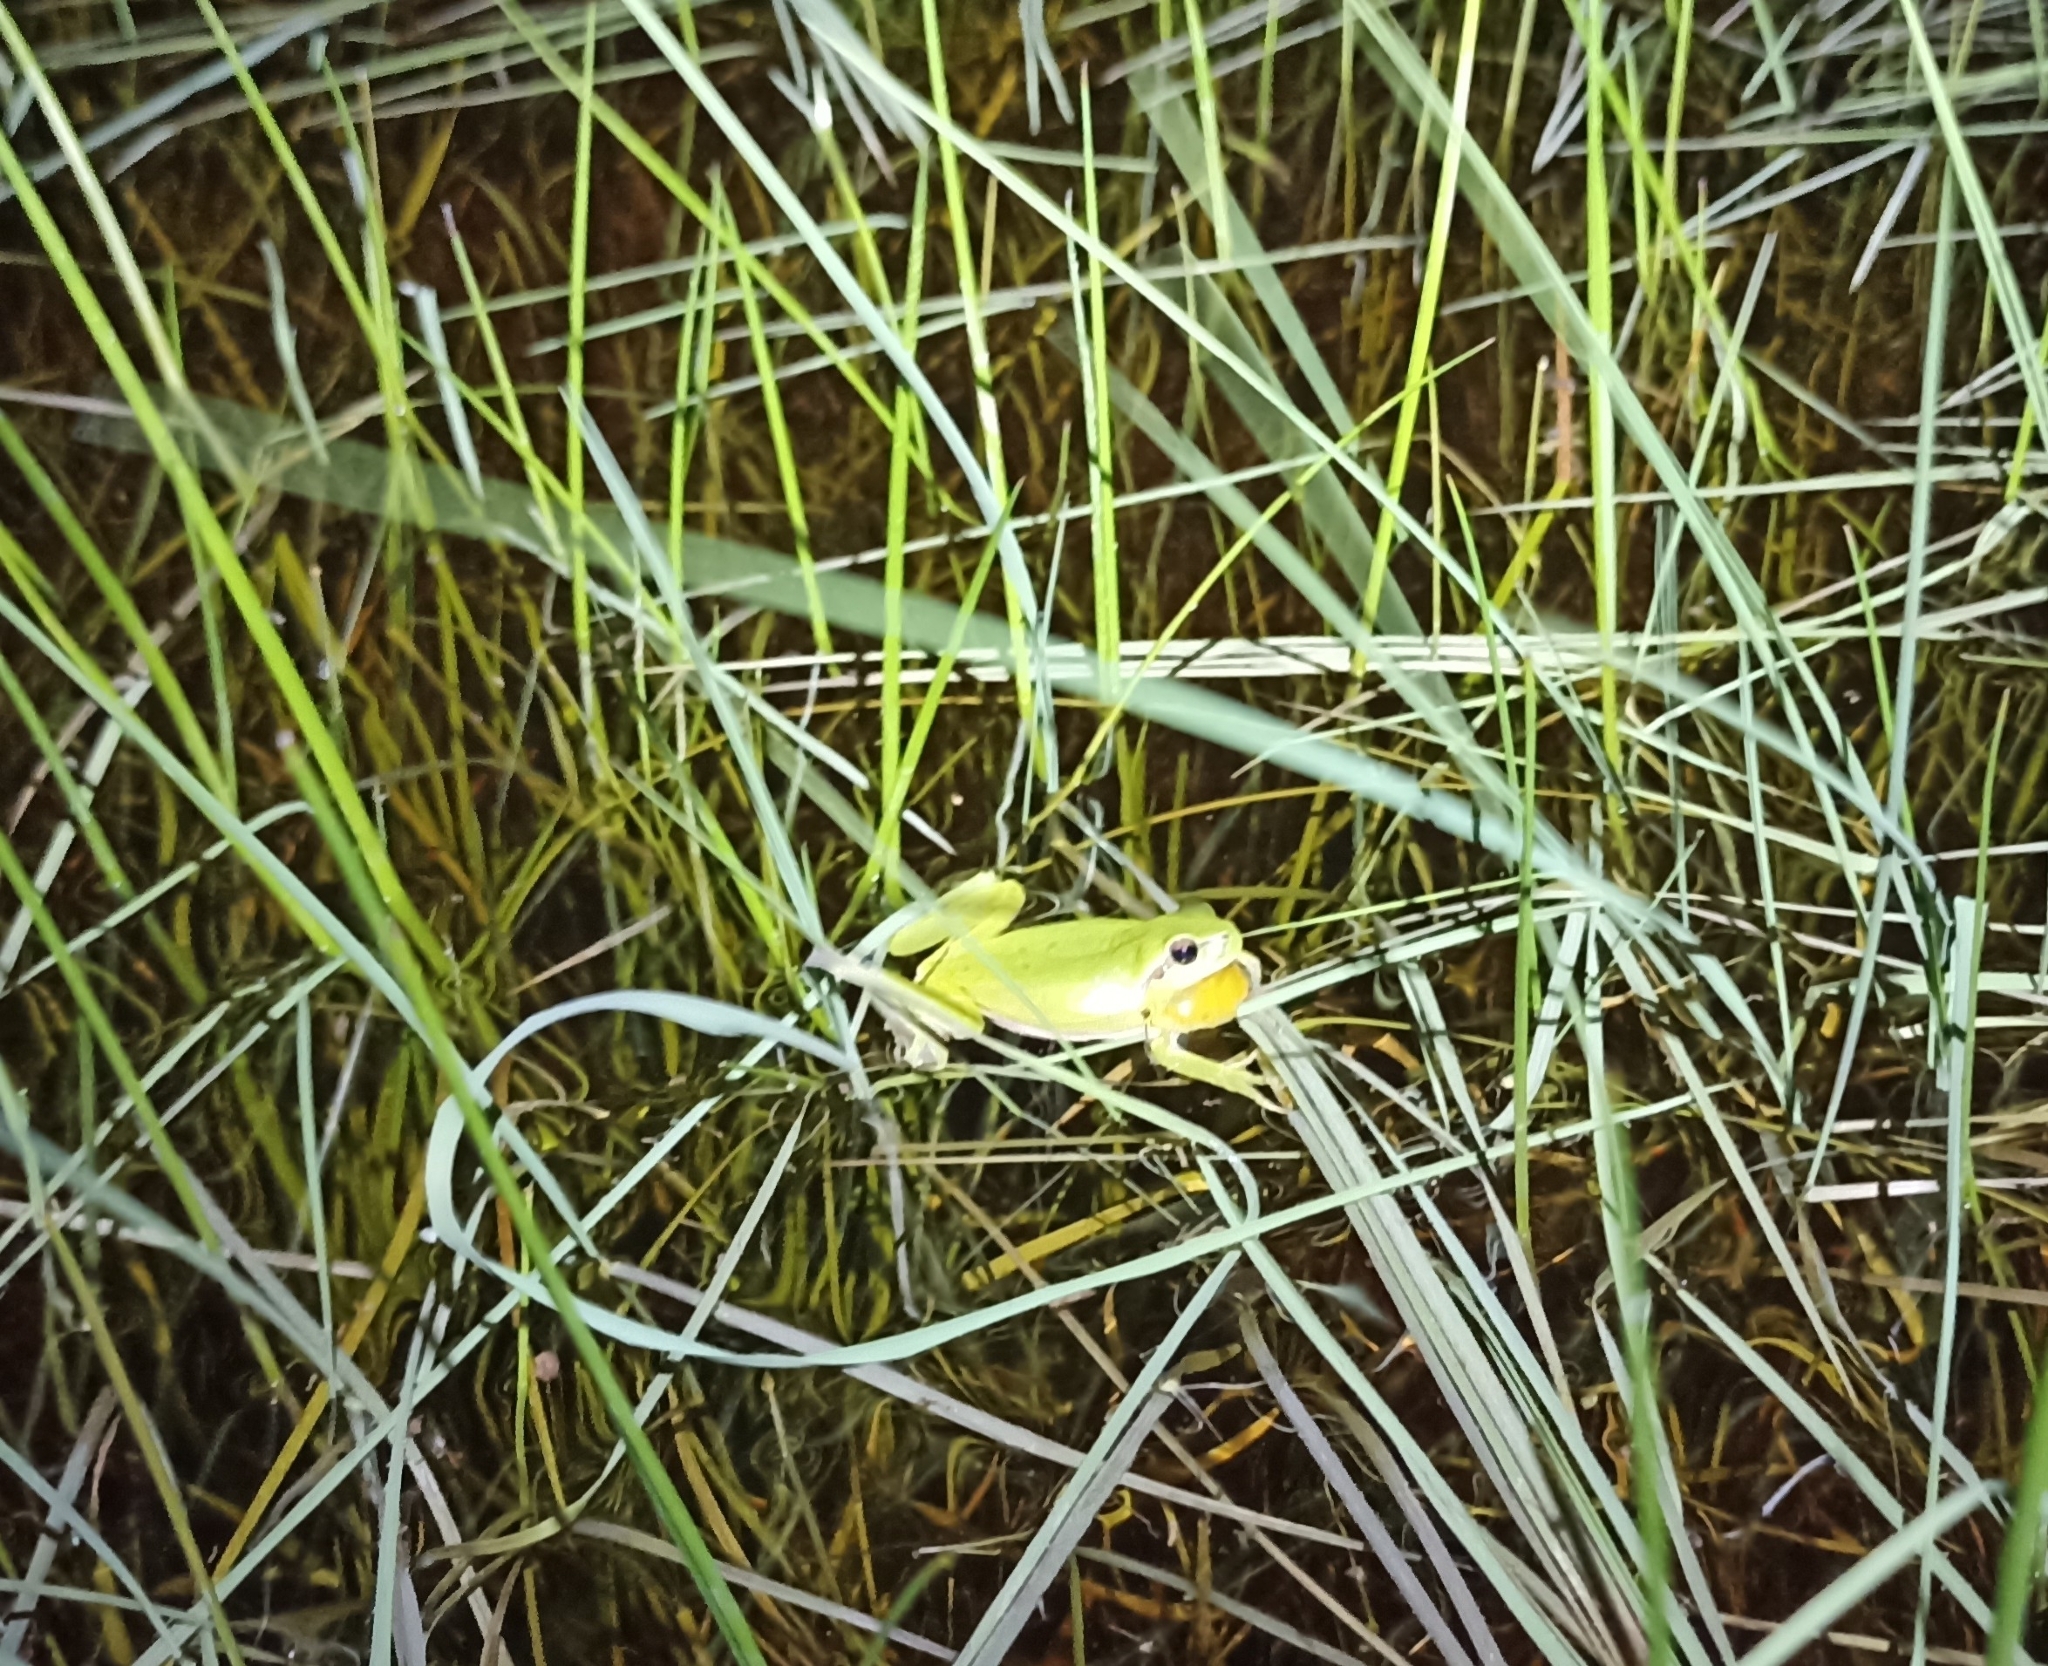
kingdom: Animalia
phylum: Chordata
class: Amphibia
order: Anura
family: Hylidae
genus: Hyla
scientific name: Hyla meridionalis
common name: Stripeless tree frog
